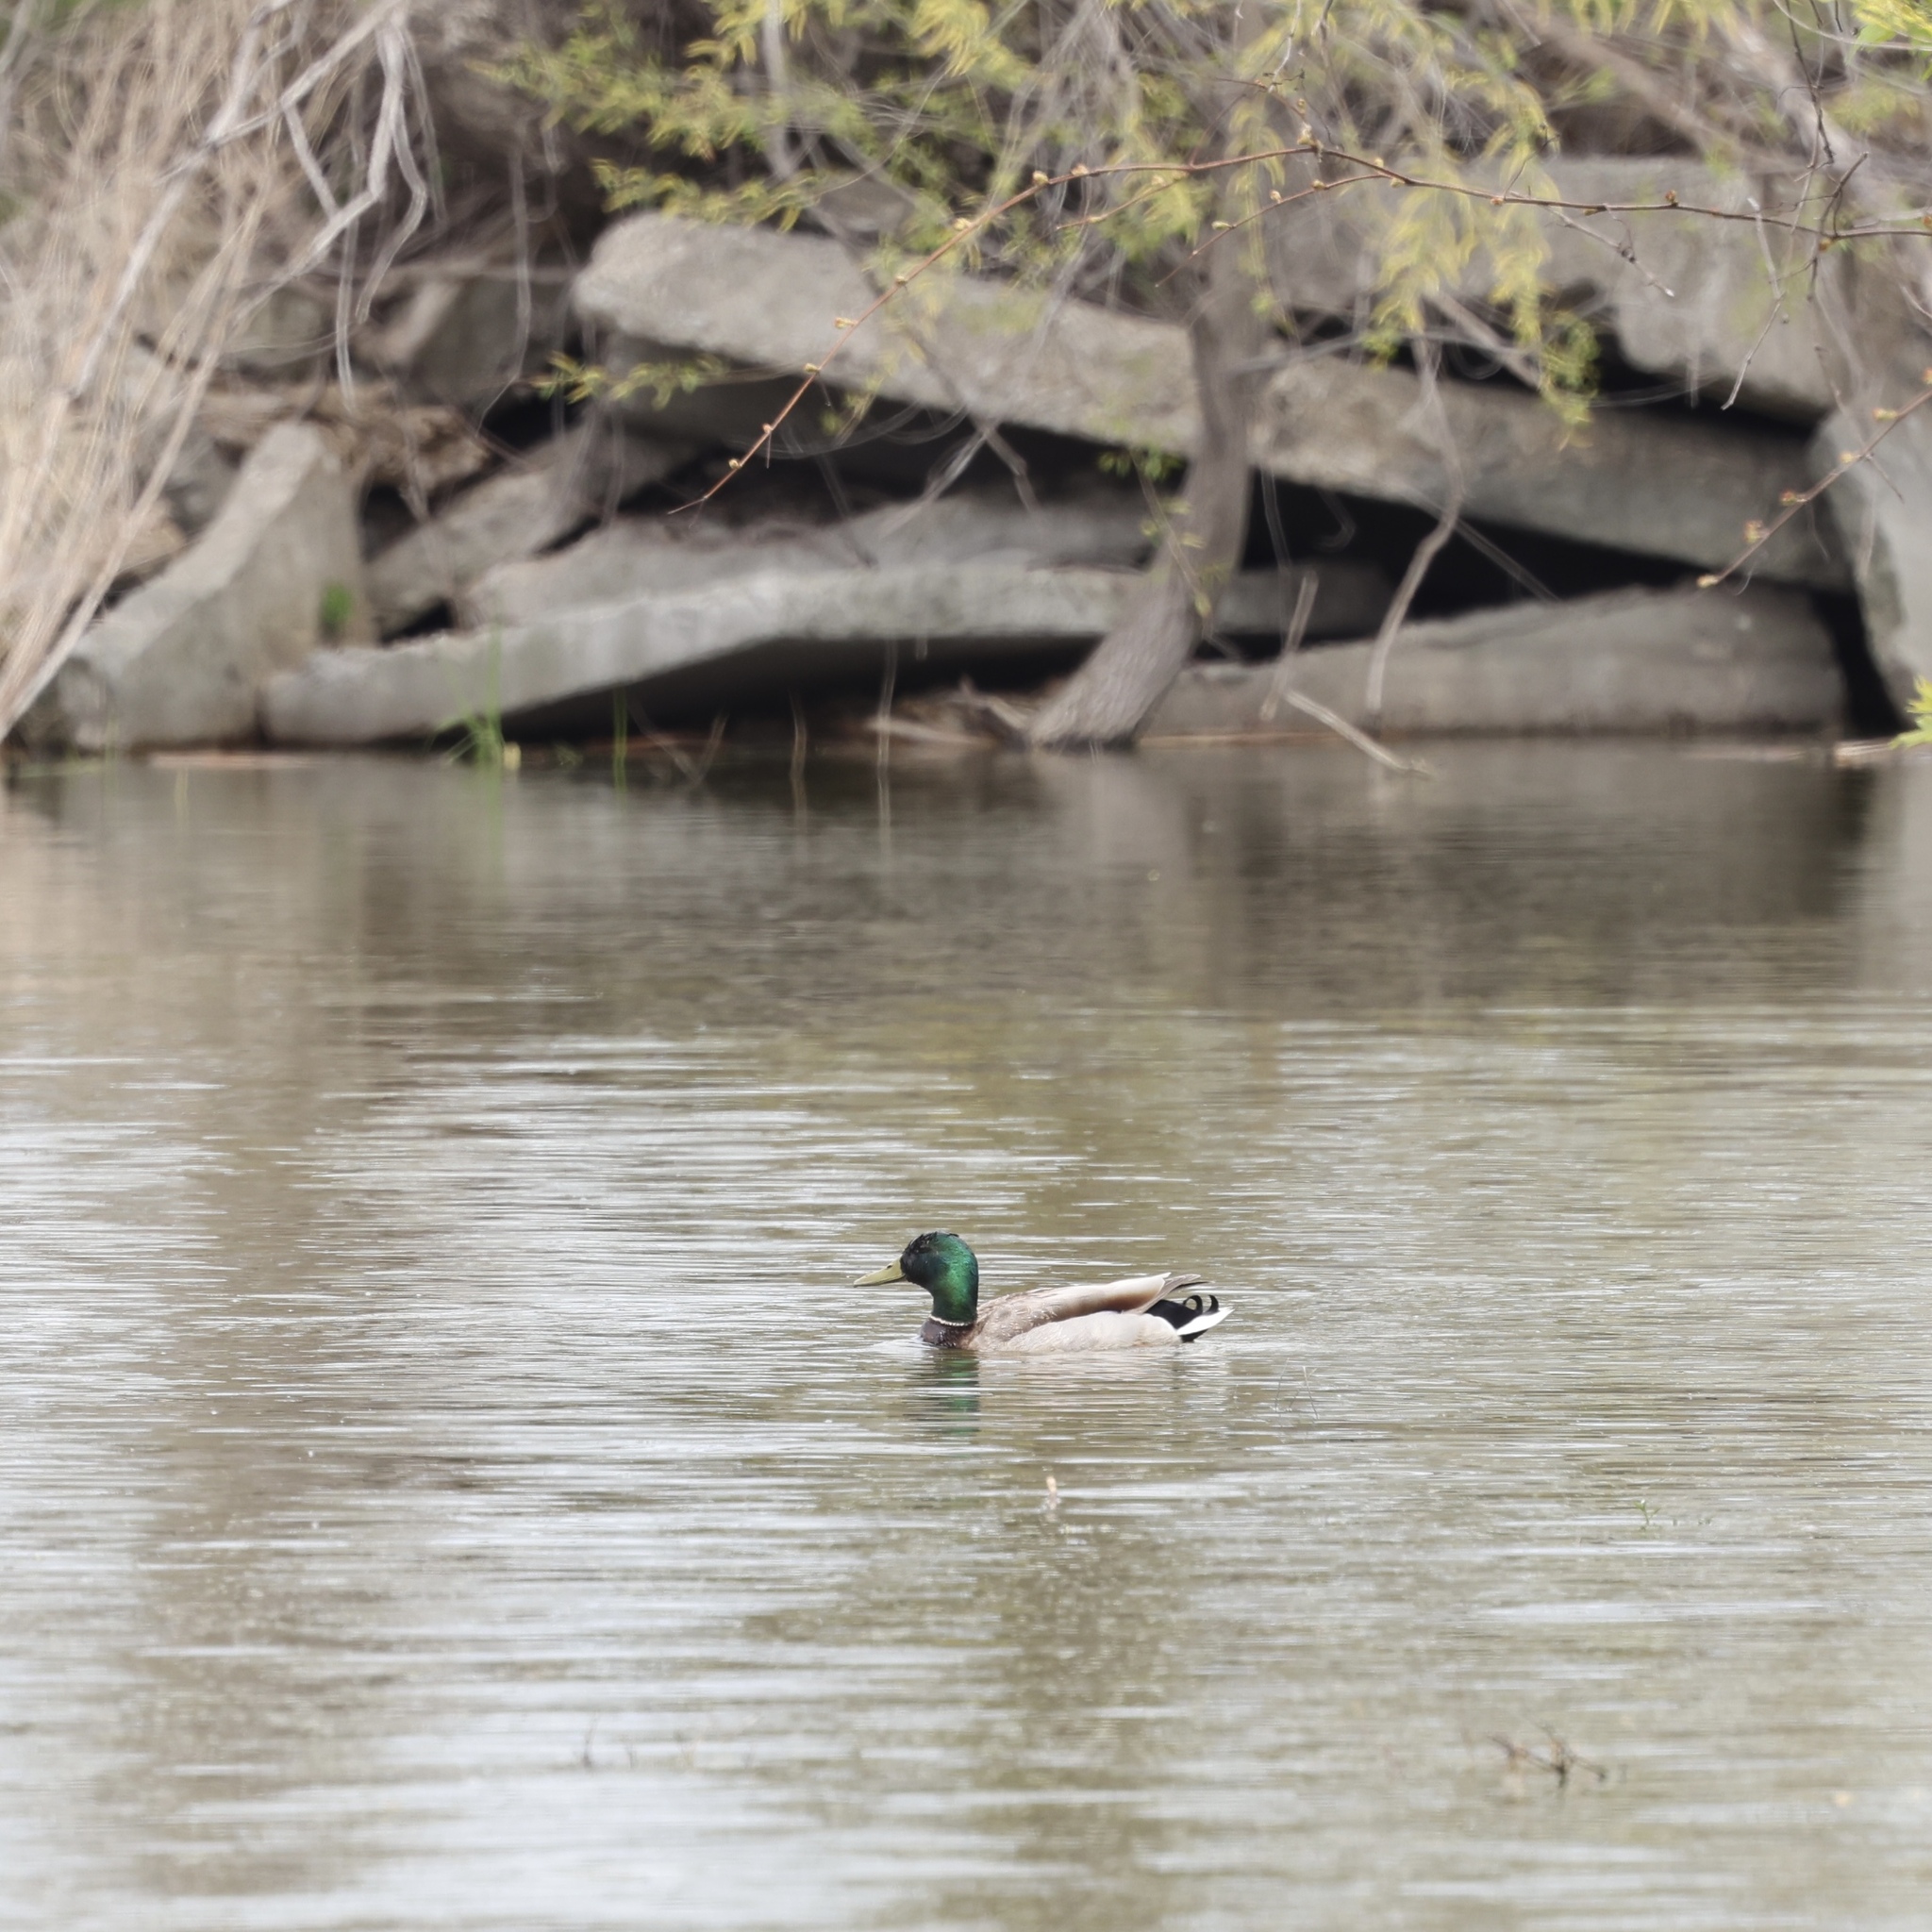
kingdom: Animalia
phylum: Chordata
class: Aves
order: Anseriformes
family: Anatidae
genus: Anas
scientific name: Anas platyrhynchos
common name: Mallard
